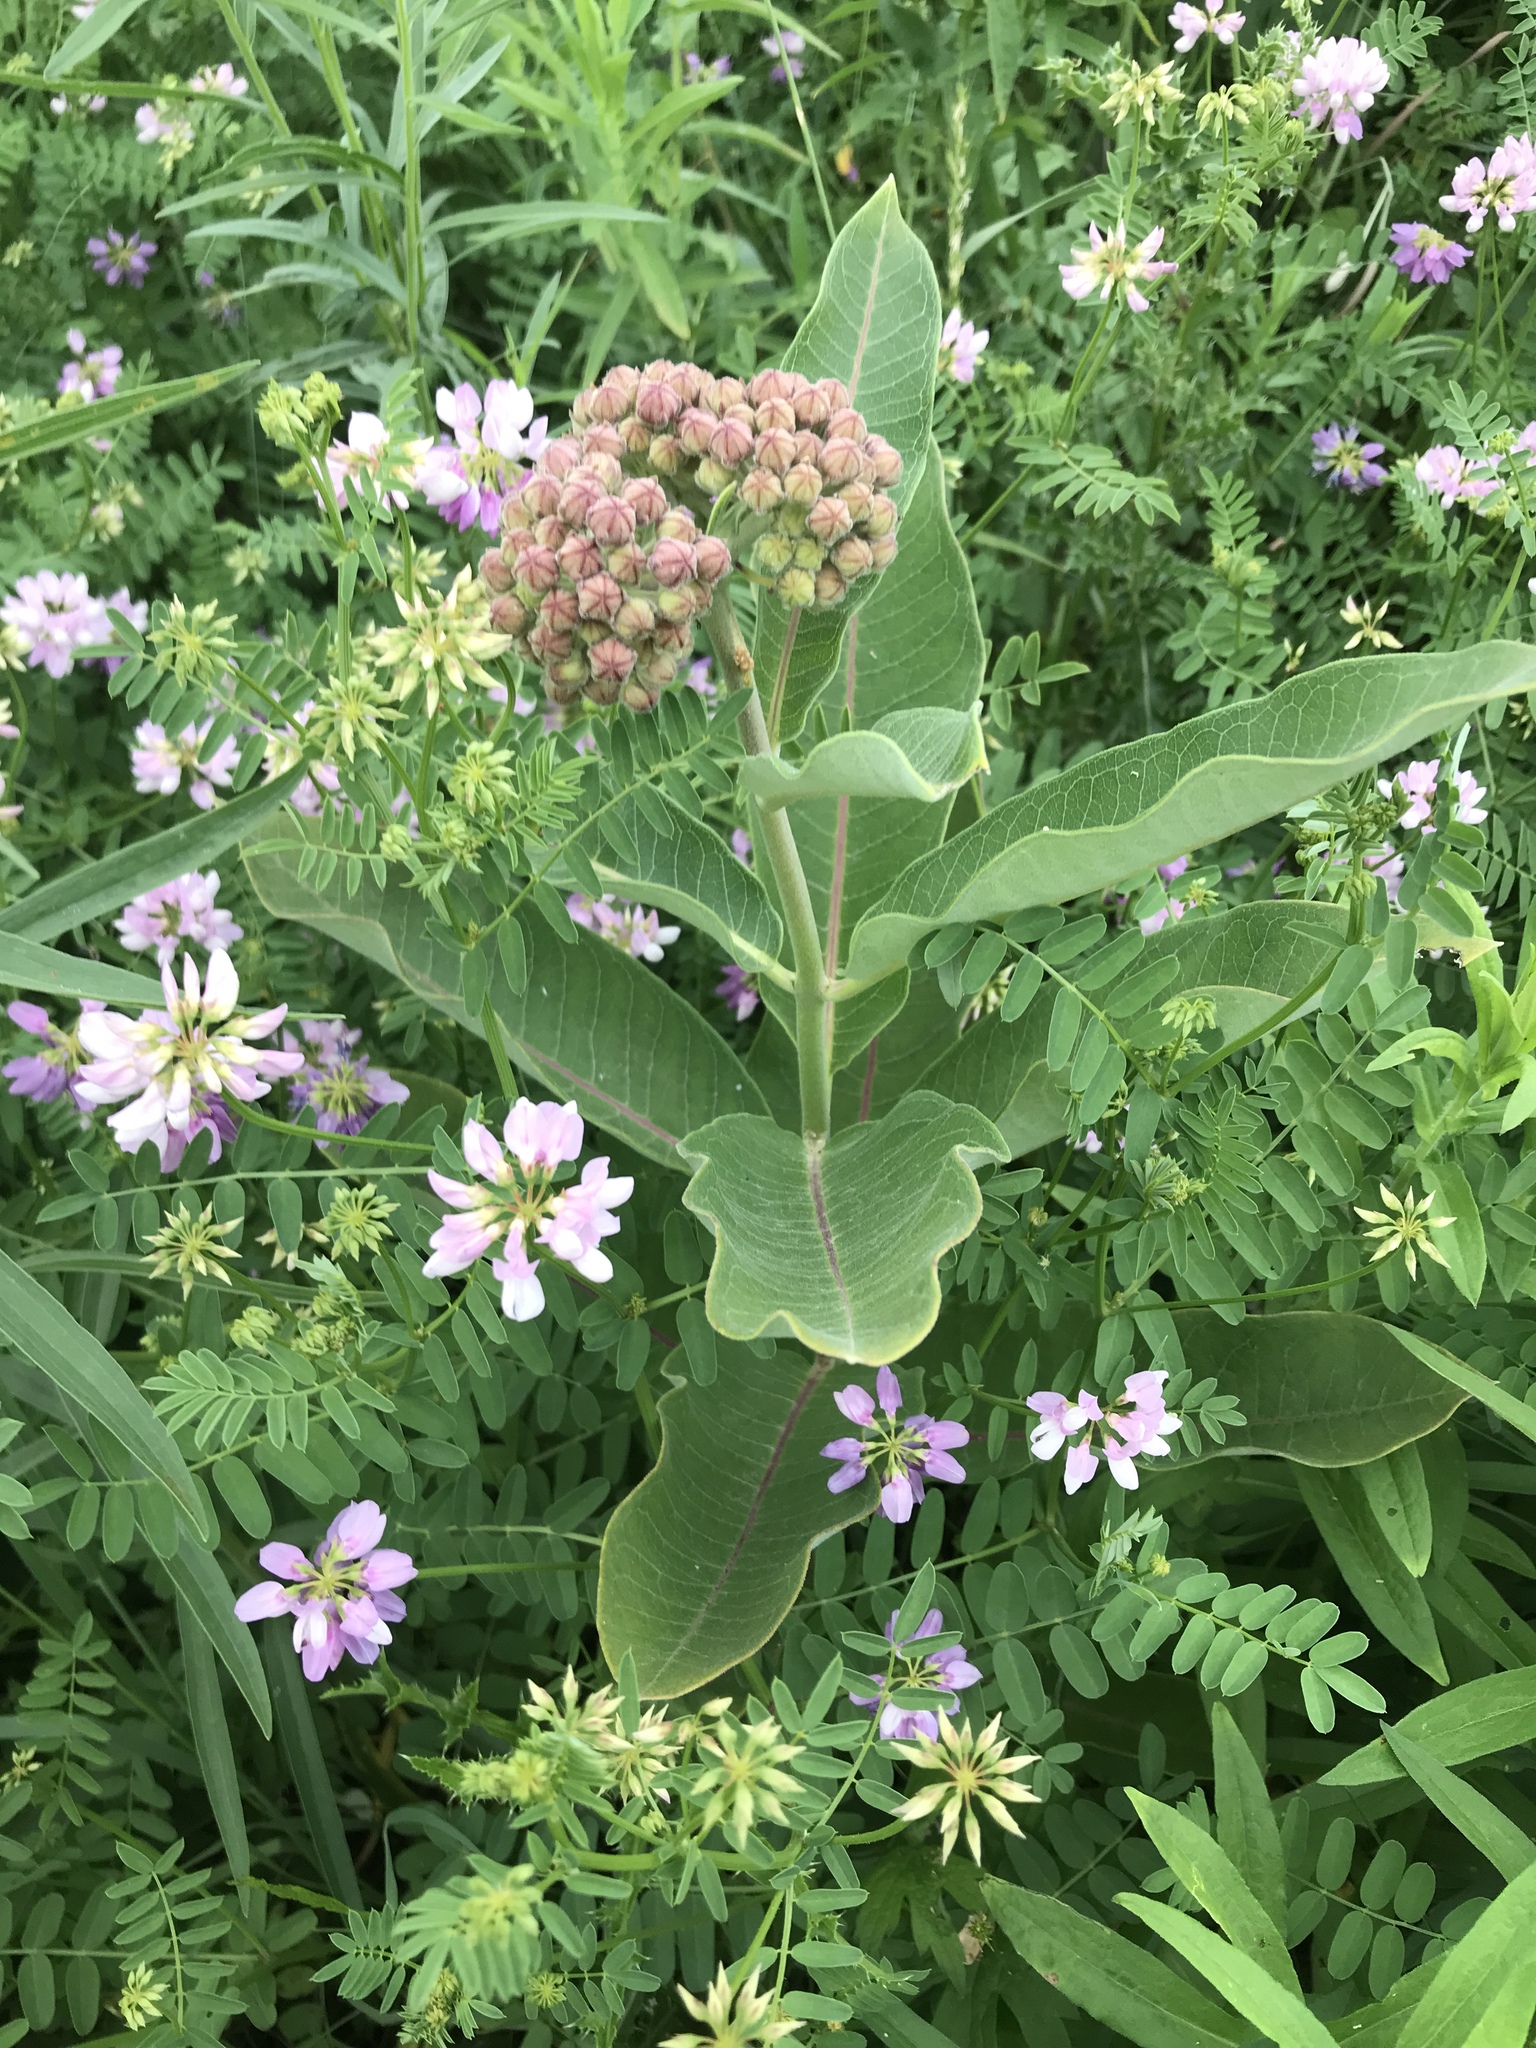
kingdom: Plantae
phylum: Tracheophyta
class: Magnoliopsida
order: Gentianales
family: Apocynaceae
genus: Asclepias
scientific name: Asclepias syriaca
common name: Common milkweed
